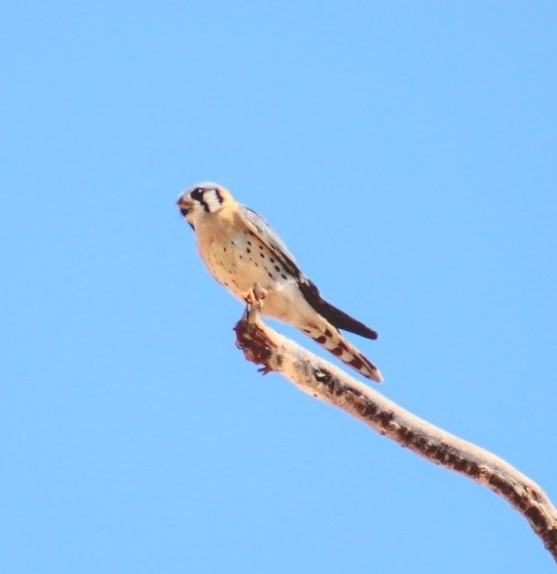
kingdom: Animalia
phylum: Chordata
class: Aves
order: Falconiformes
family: Falconidae
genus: Falco
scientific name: Falco sparverius
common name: American kestrel
